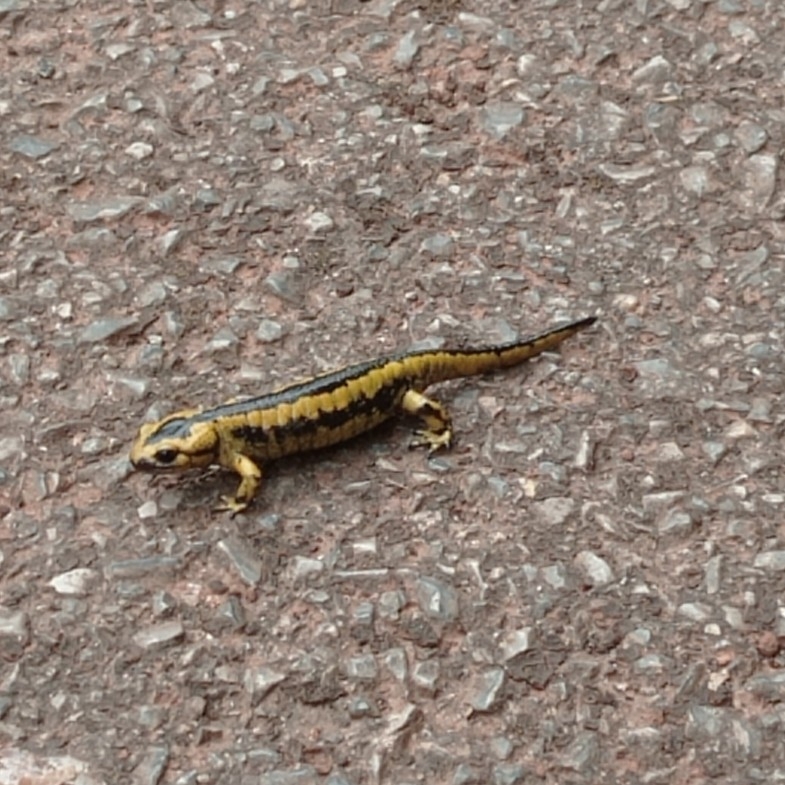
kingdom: Animalia
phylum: Chordata
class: Amphibia
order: Caudata
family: Salamandridae
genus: Salamandra
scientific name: Salamandra salamandra
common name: Fire salamander
